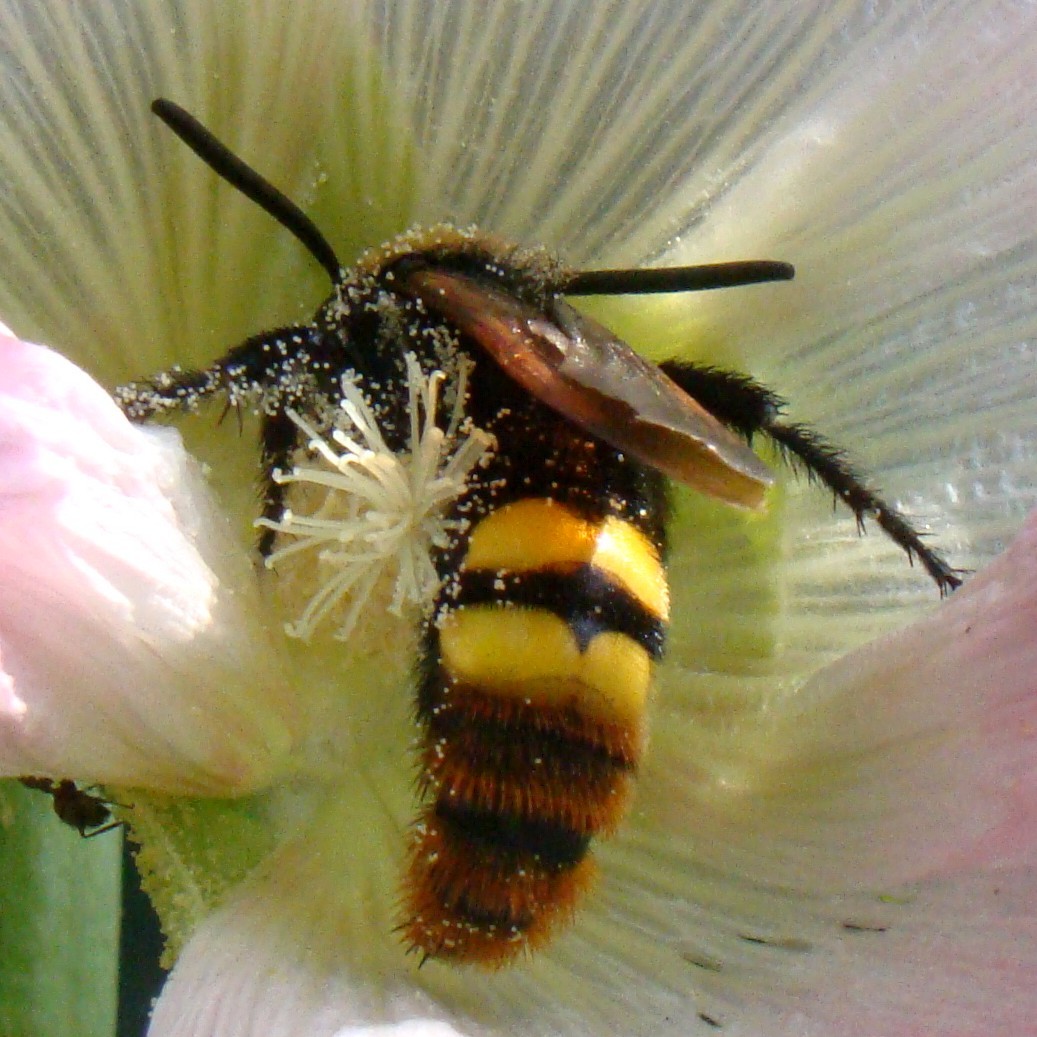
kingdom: Animalia
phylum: Arthropoda
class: Insecta
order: Hymenoptera
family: Scoliidae
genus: Megascolia
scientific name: Megascolia maculata
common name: Mammoth wasp
